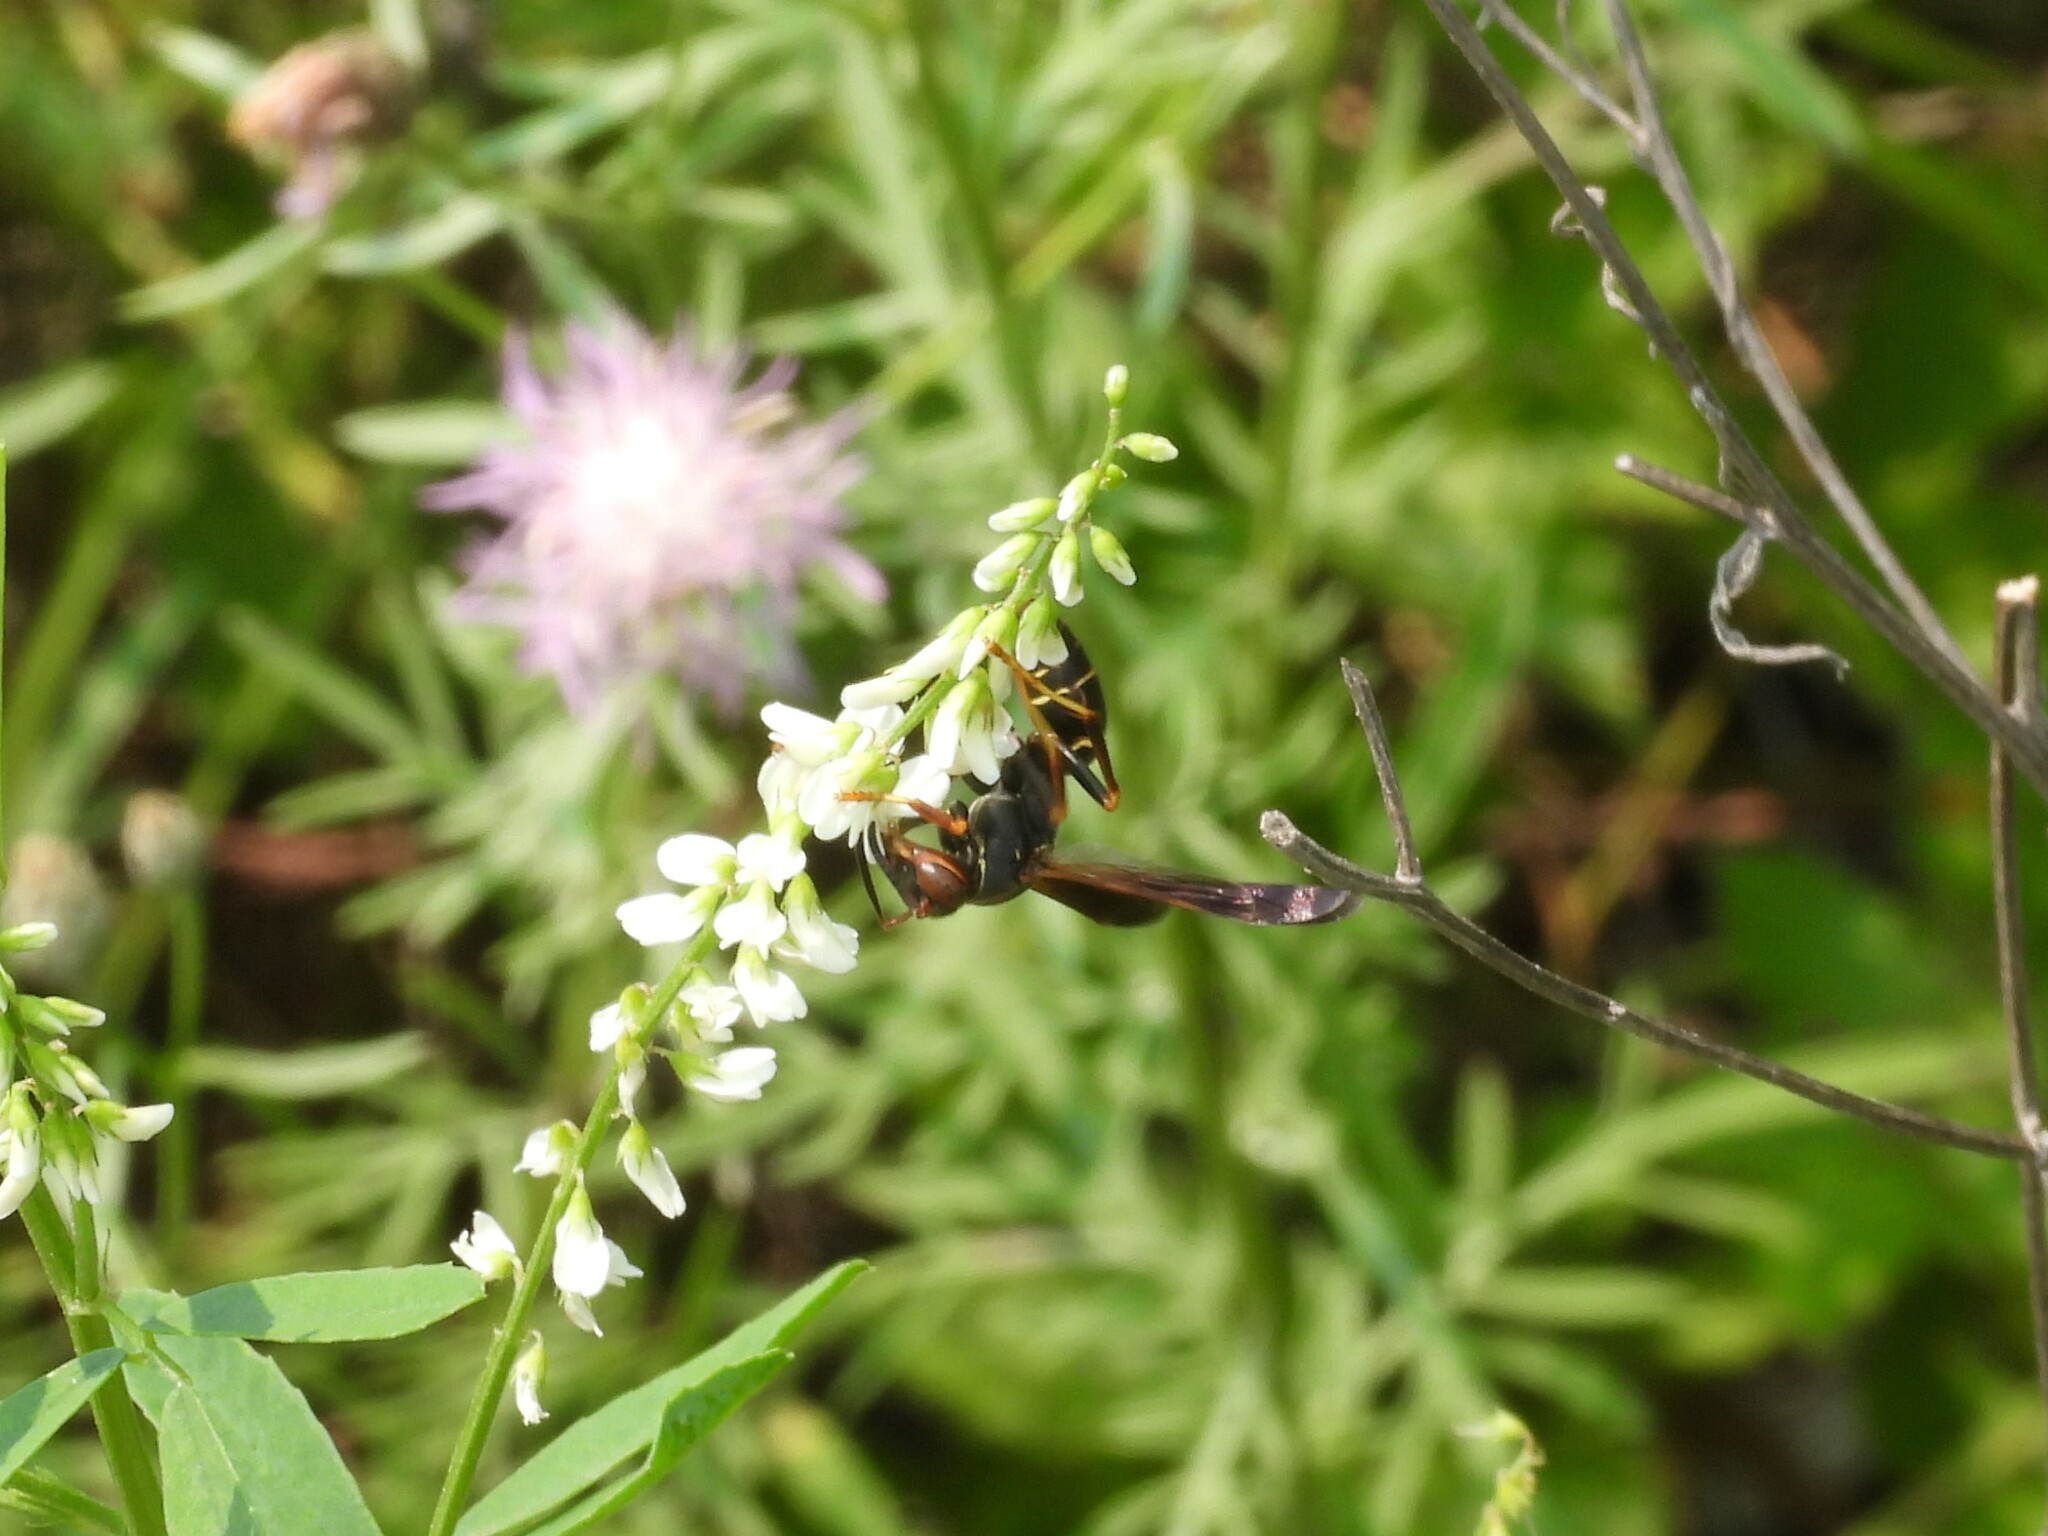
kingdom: Animalia
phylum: Arthropoda
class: Insecta
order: Hymenoptera
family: Eumenidae
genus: Polistes
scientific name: Polistes fuscatus
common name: Dark paper wasp
